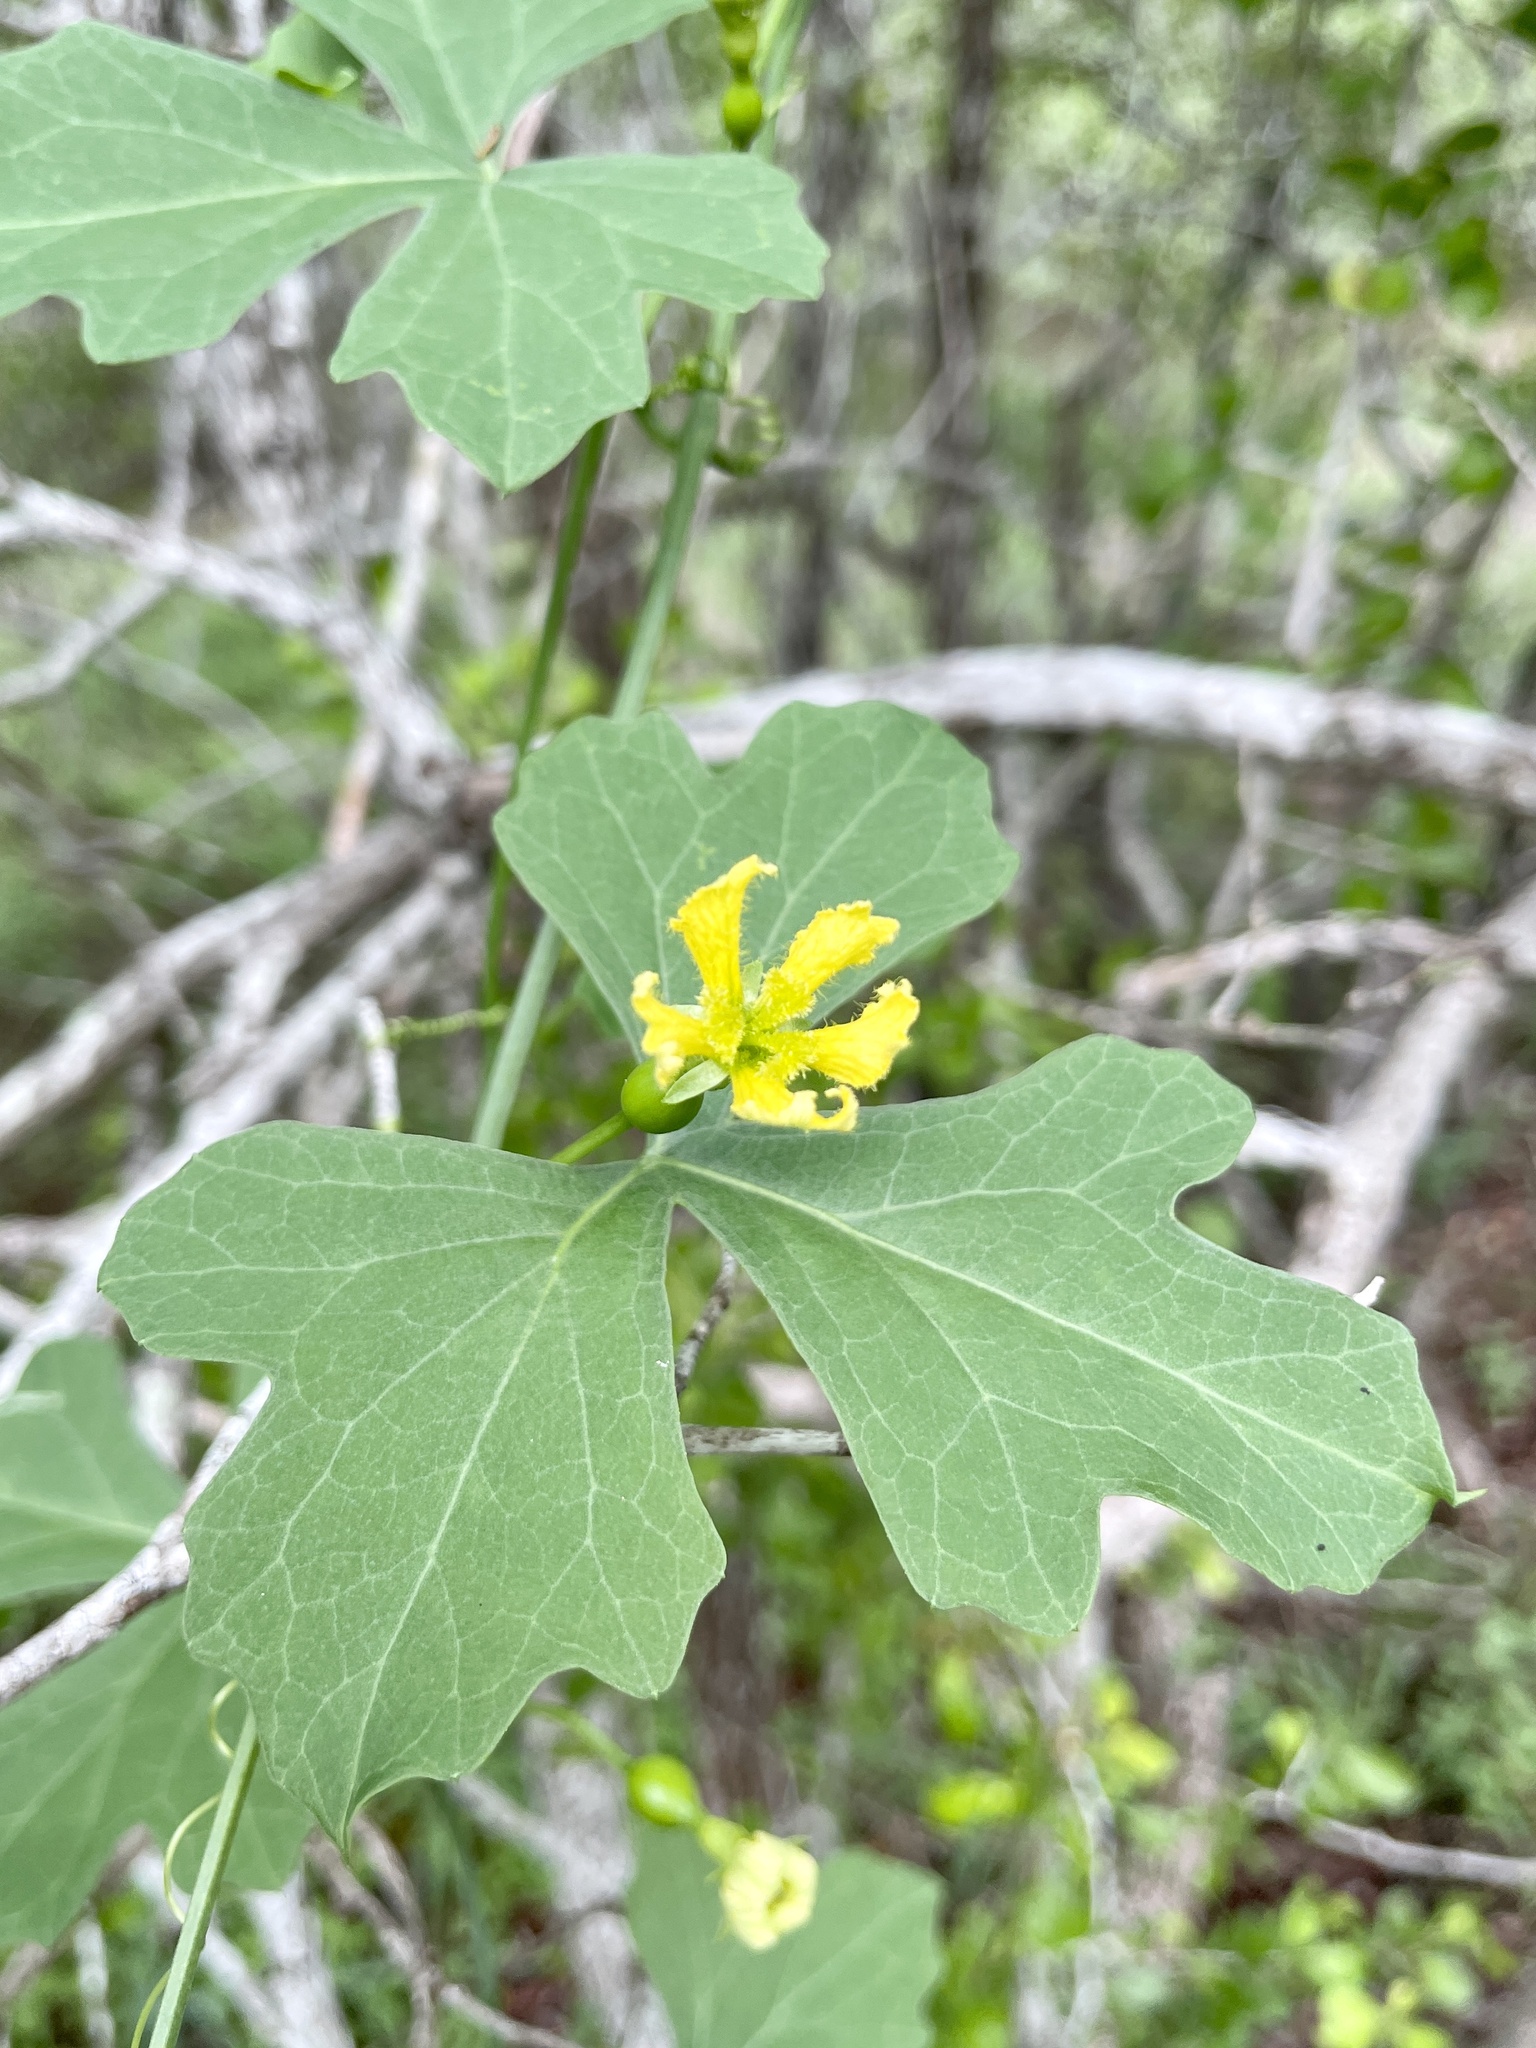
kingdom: Plantae
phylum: Tracheophyta
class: Magnoliopsida
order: Cucurbitales
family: Cucurbitaceae
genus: Ibervillea
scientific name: Ibervillea lindheimeri
